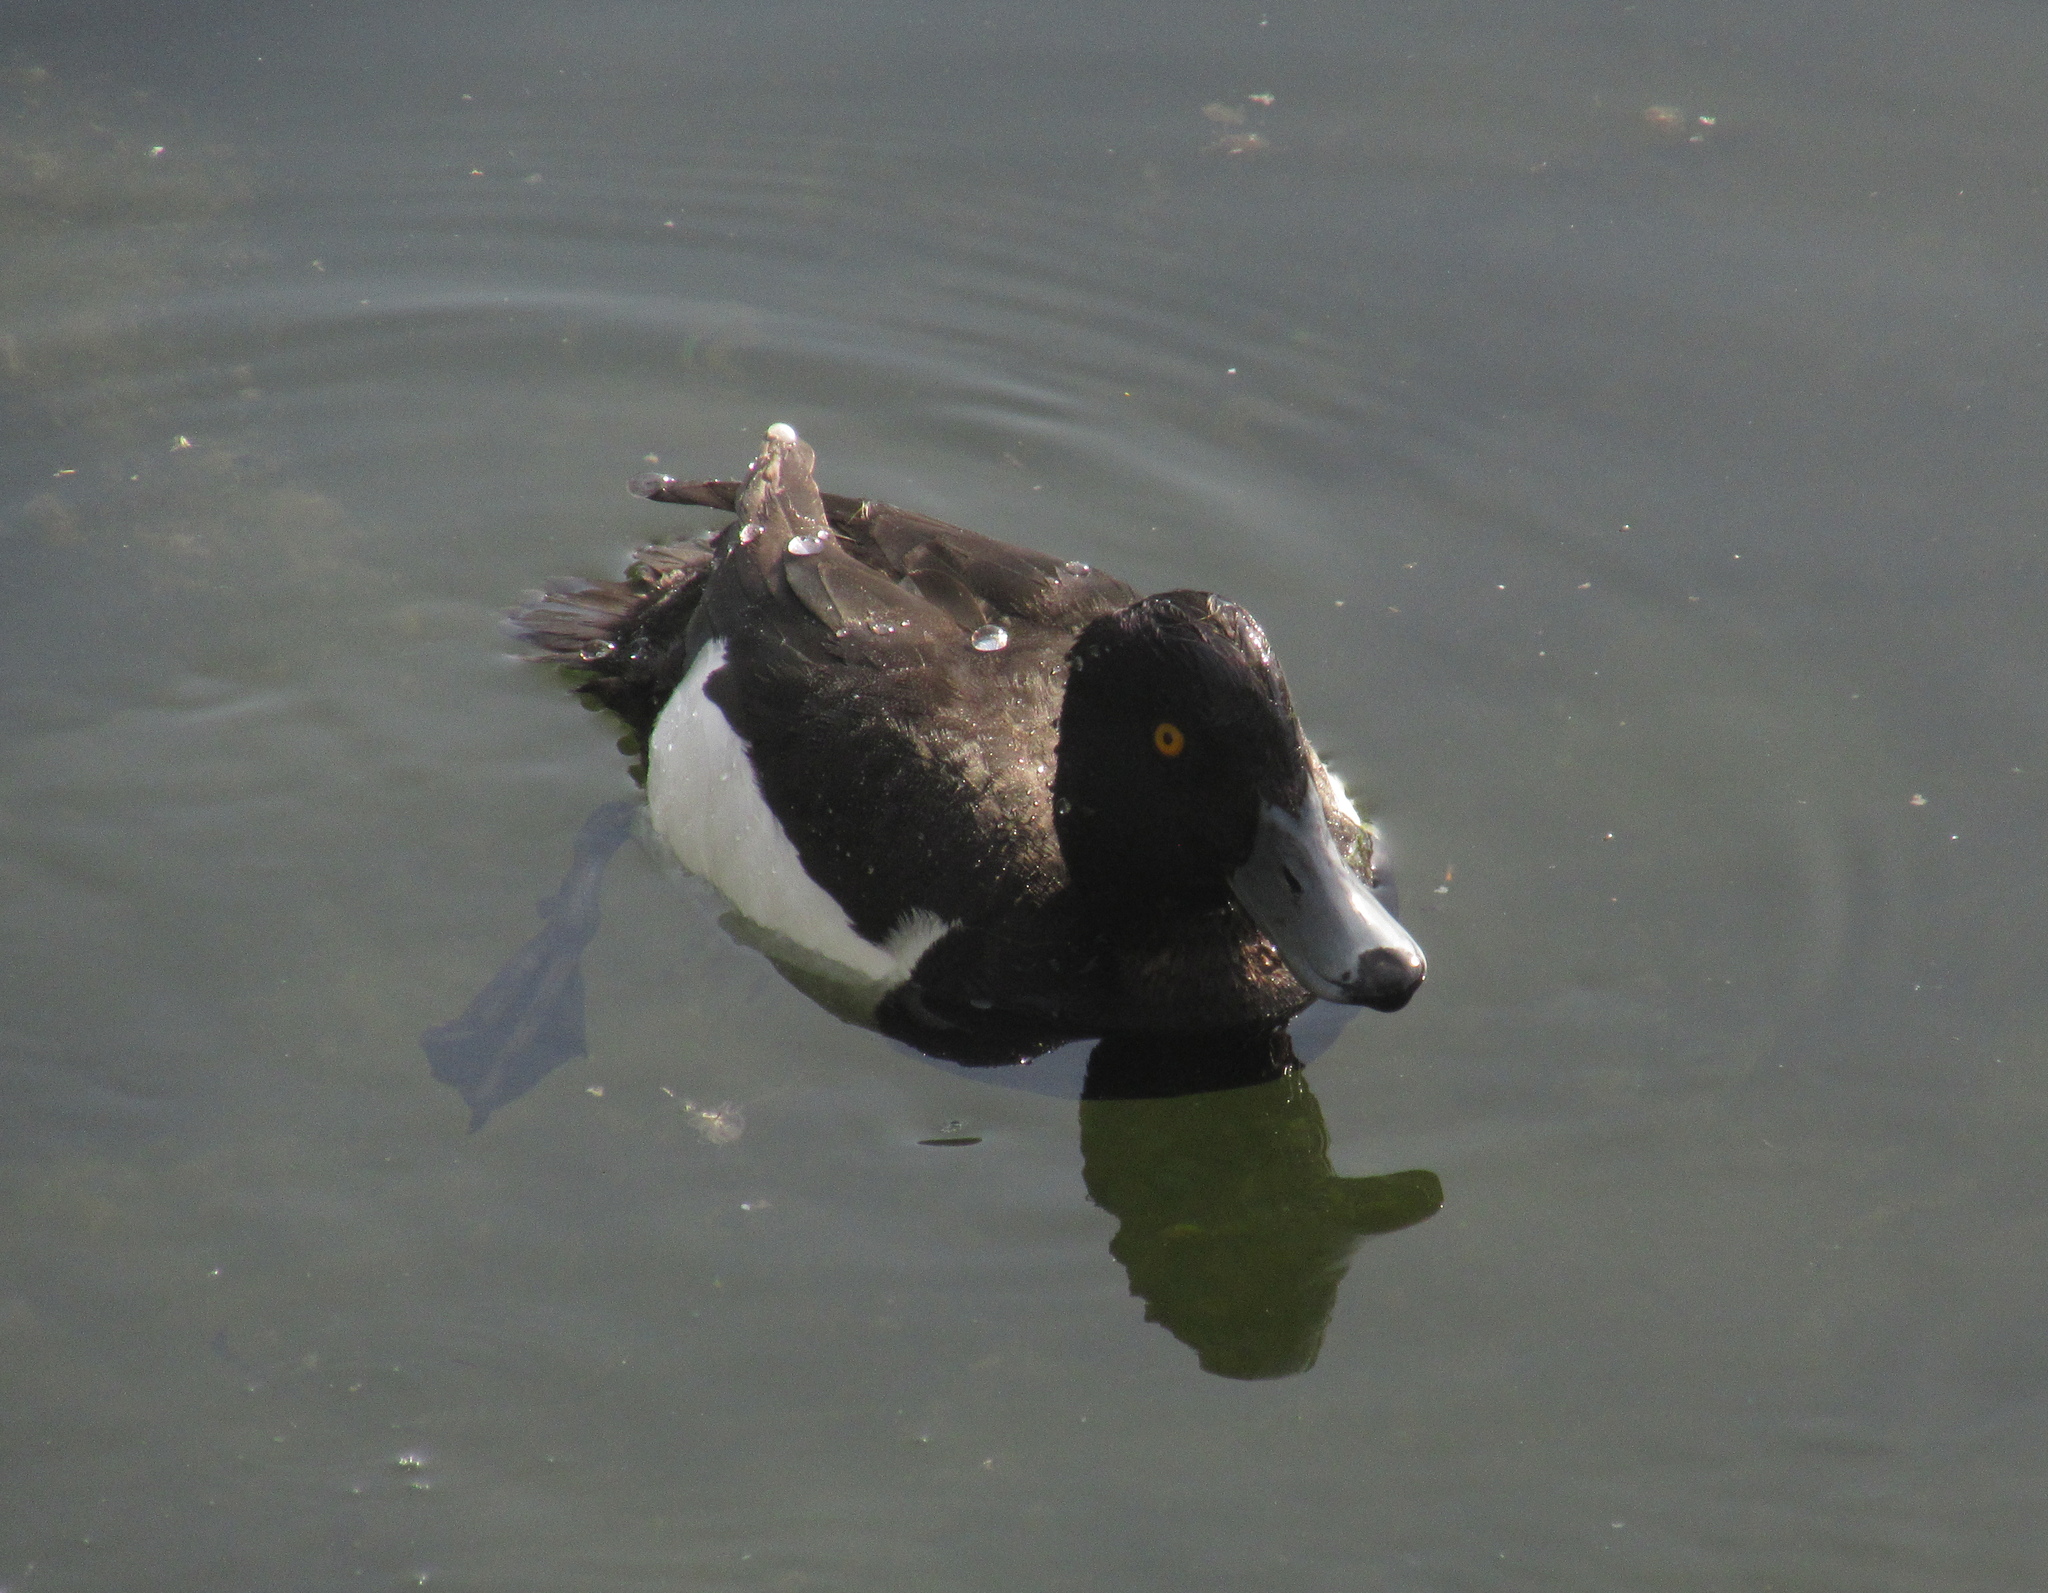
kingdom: Animalia
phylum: Chordata
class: Aves
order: Anseriformes
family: Anatidae
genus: Aythya
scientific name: Aythya fuligula
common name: Tufted duck
